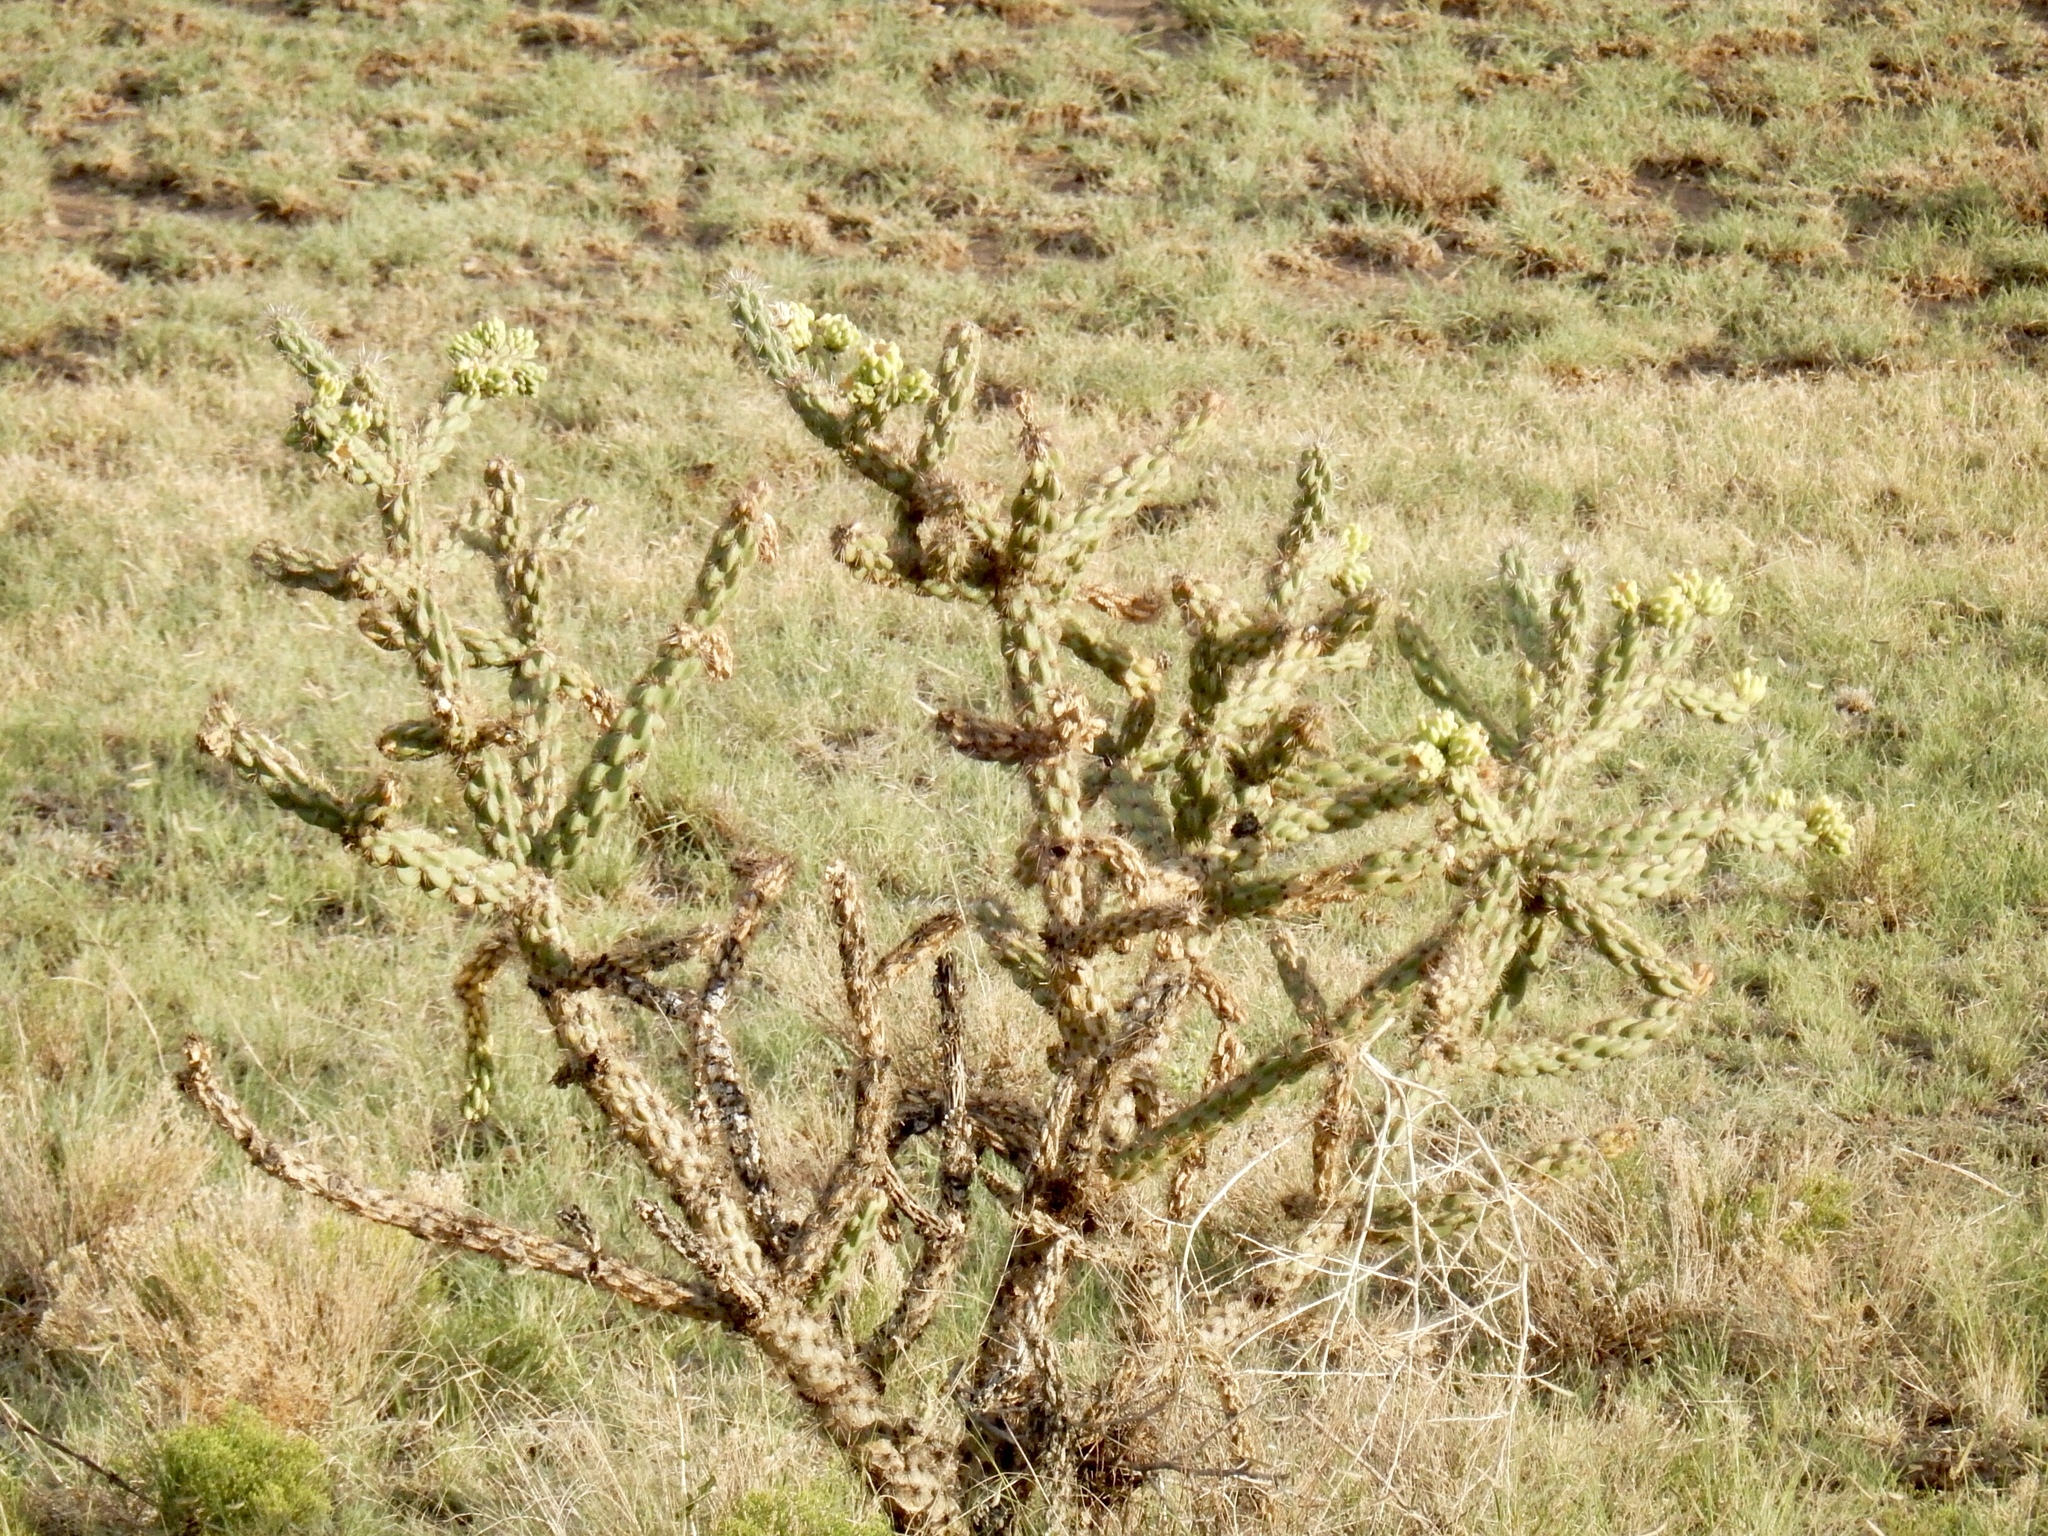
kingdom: Plantae
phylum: Tracheophyta
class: Magnoliopsida
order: Caryophyllales
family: Cactaceae
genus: Cylindropuntia
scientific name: Cylindropuntia imbricata
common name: Candelabrum cactus
